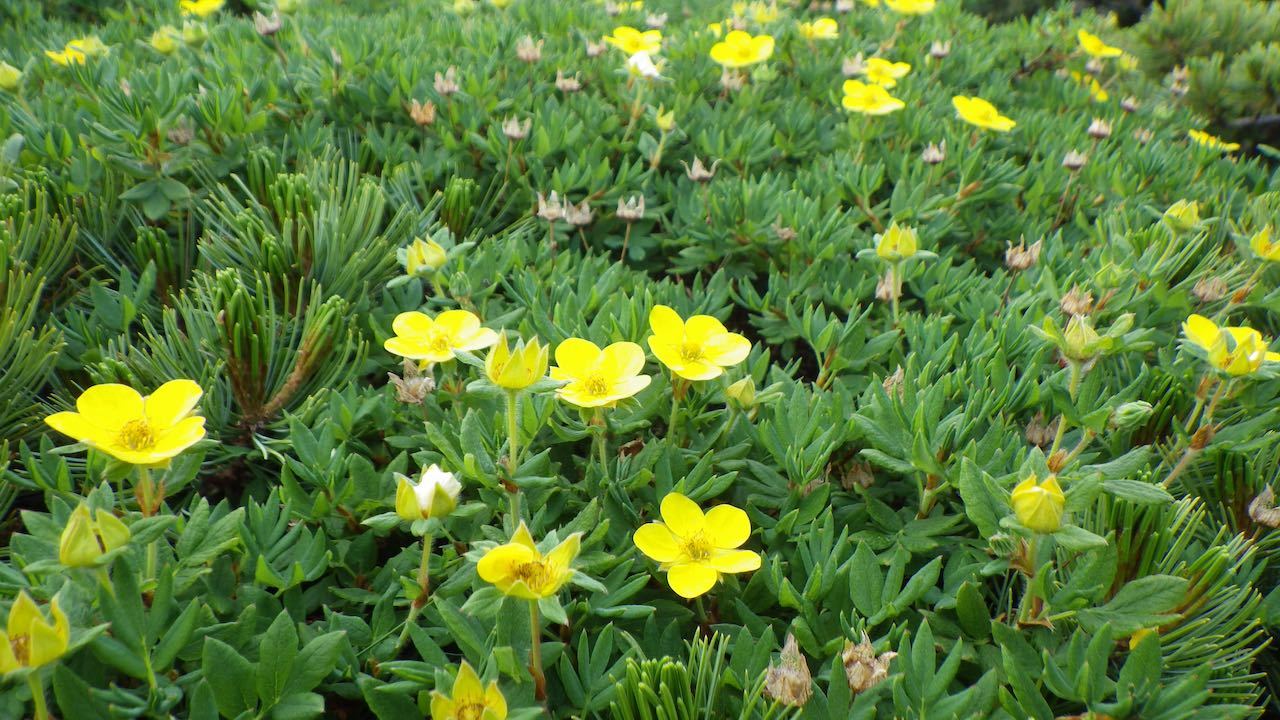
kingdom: Plantae
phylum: Tracheophyta
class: Magnoliopsida
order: Rosales
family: Rosaceae
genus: Dasiphora
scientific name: Dasiphora fruticosa
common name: Shrubby cinquefoil
